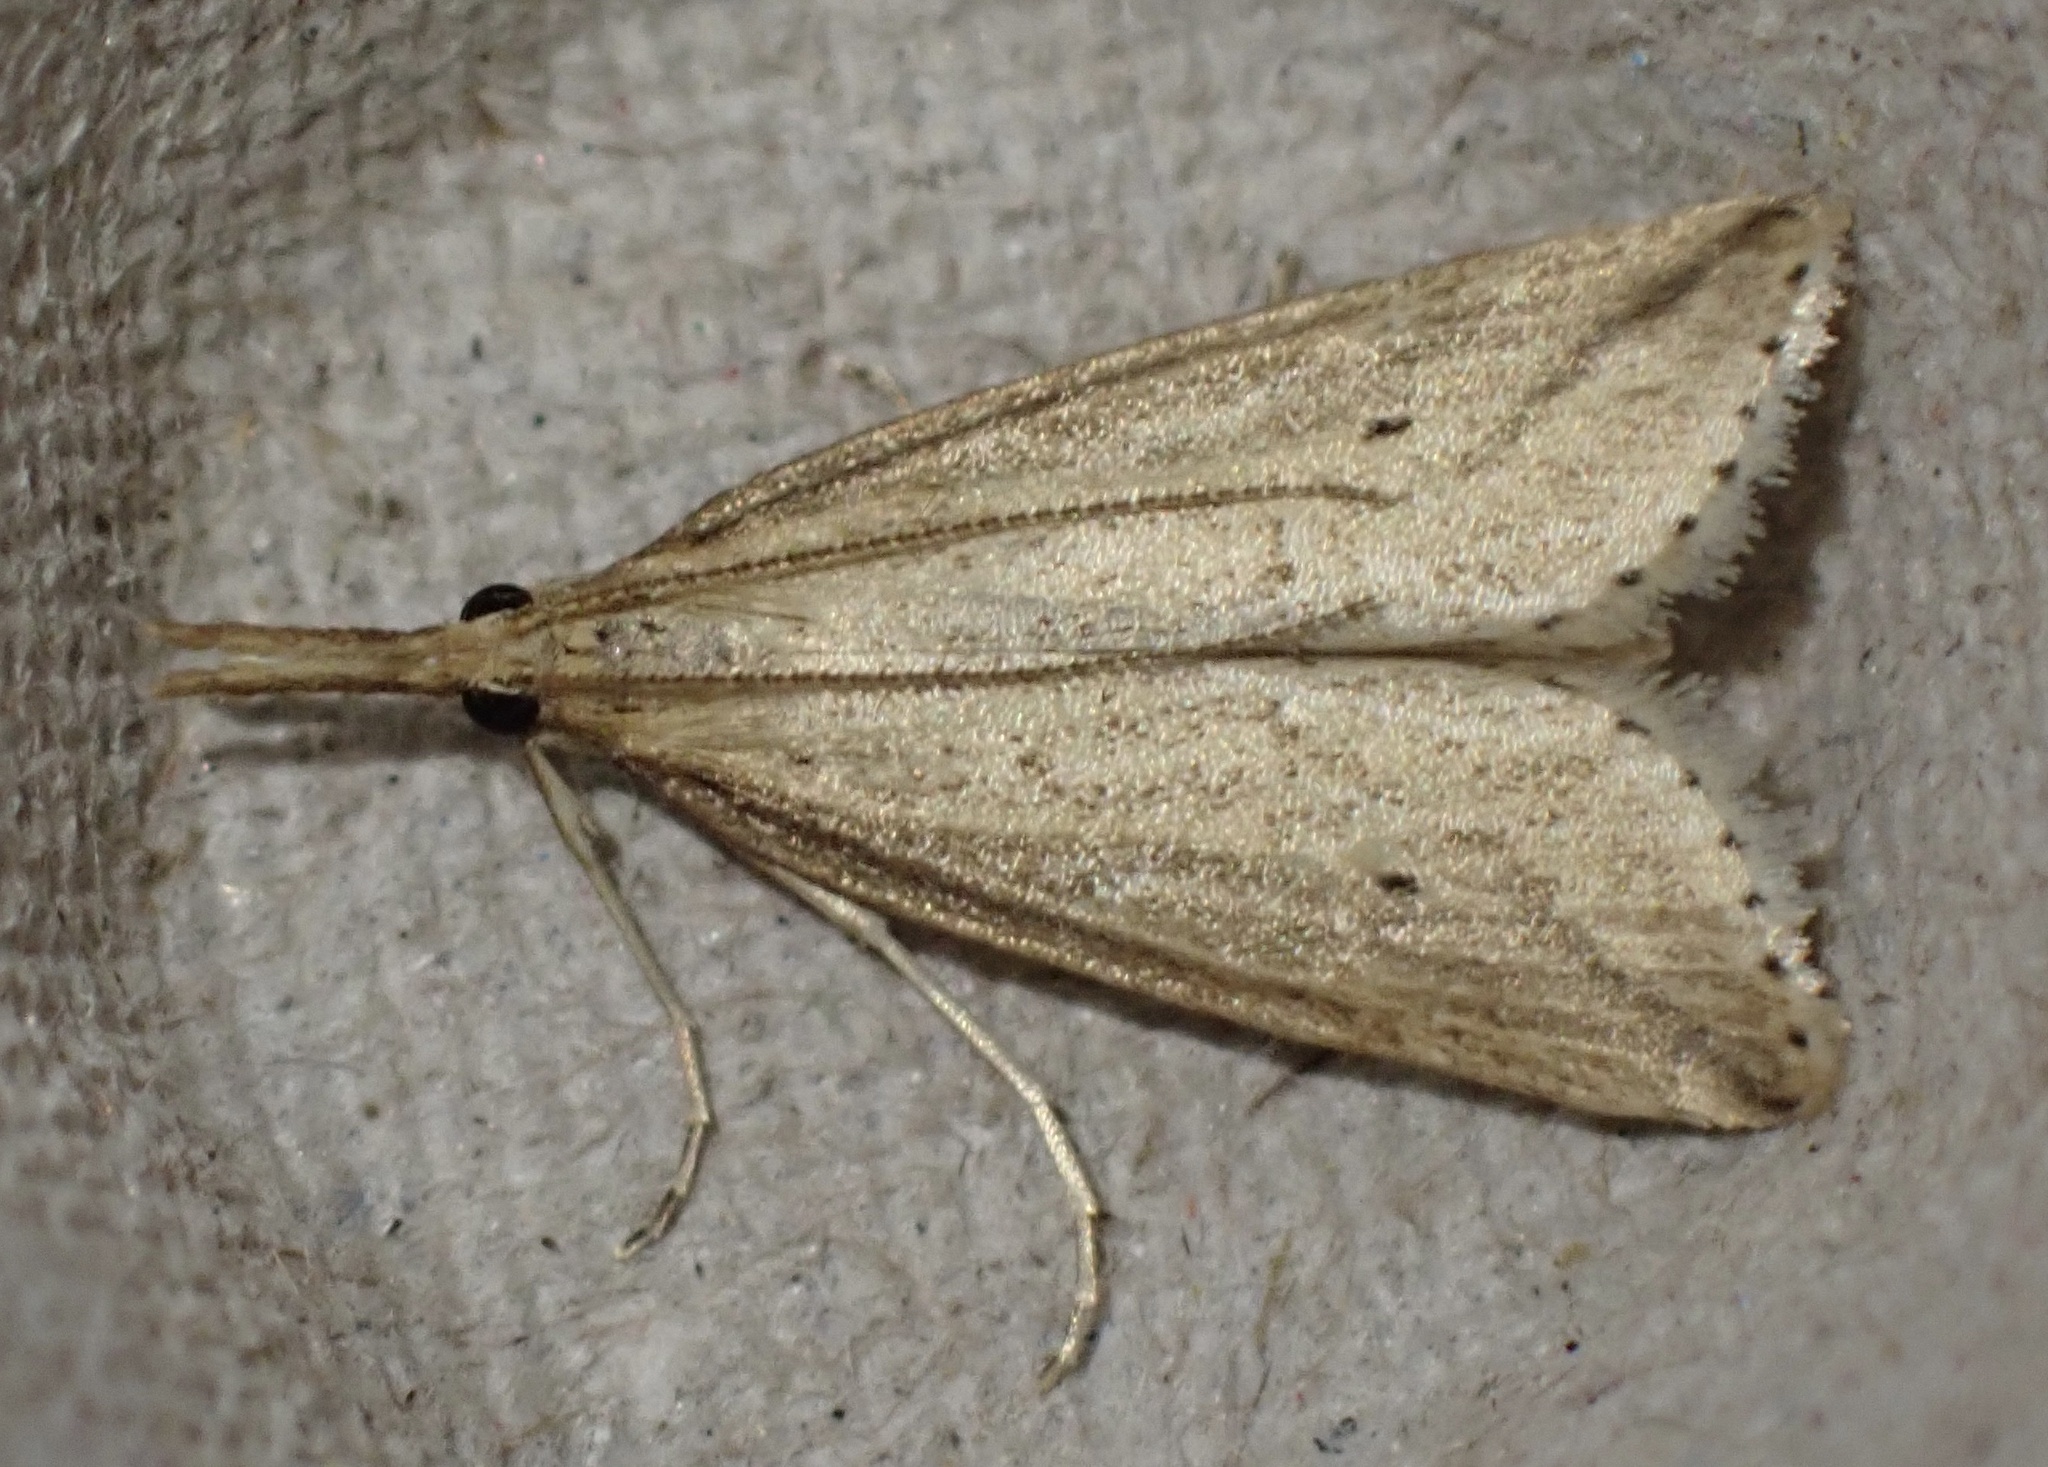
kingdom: Animalia
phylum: Arthropoda
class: Insecta
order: Lepidoptera
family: Crambidae
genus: Donacaula
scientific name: Donacaula forficella
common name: Pale water-veneer
